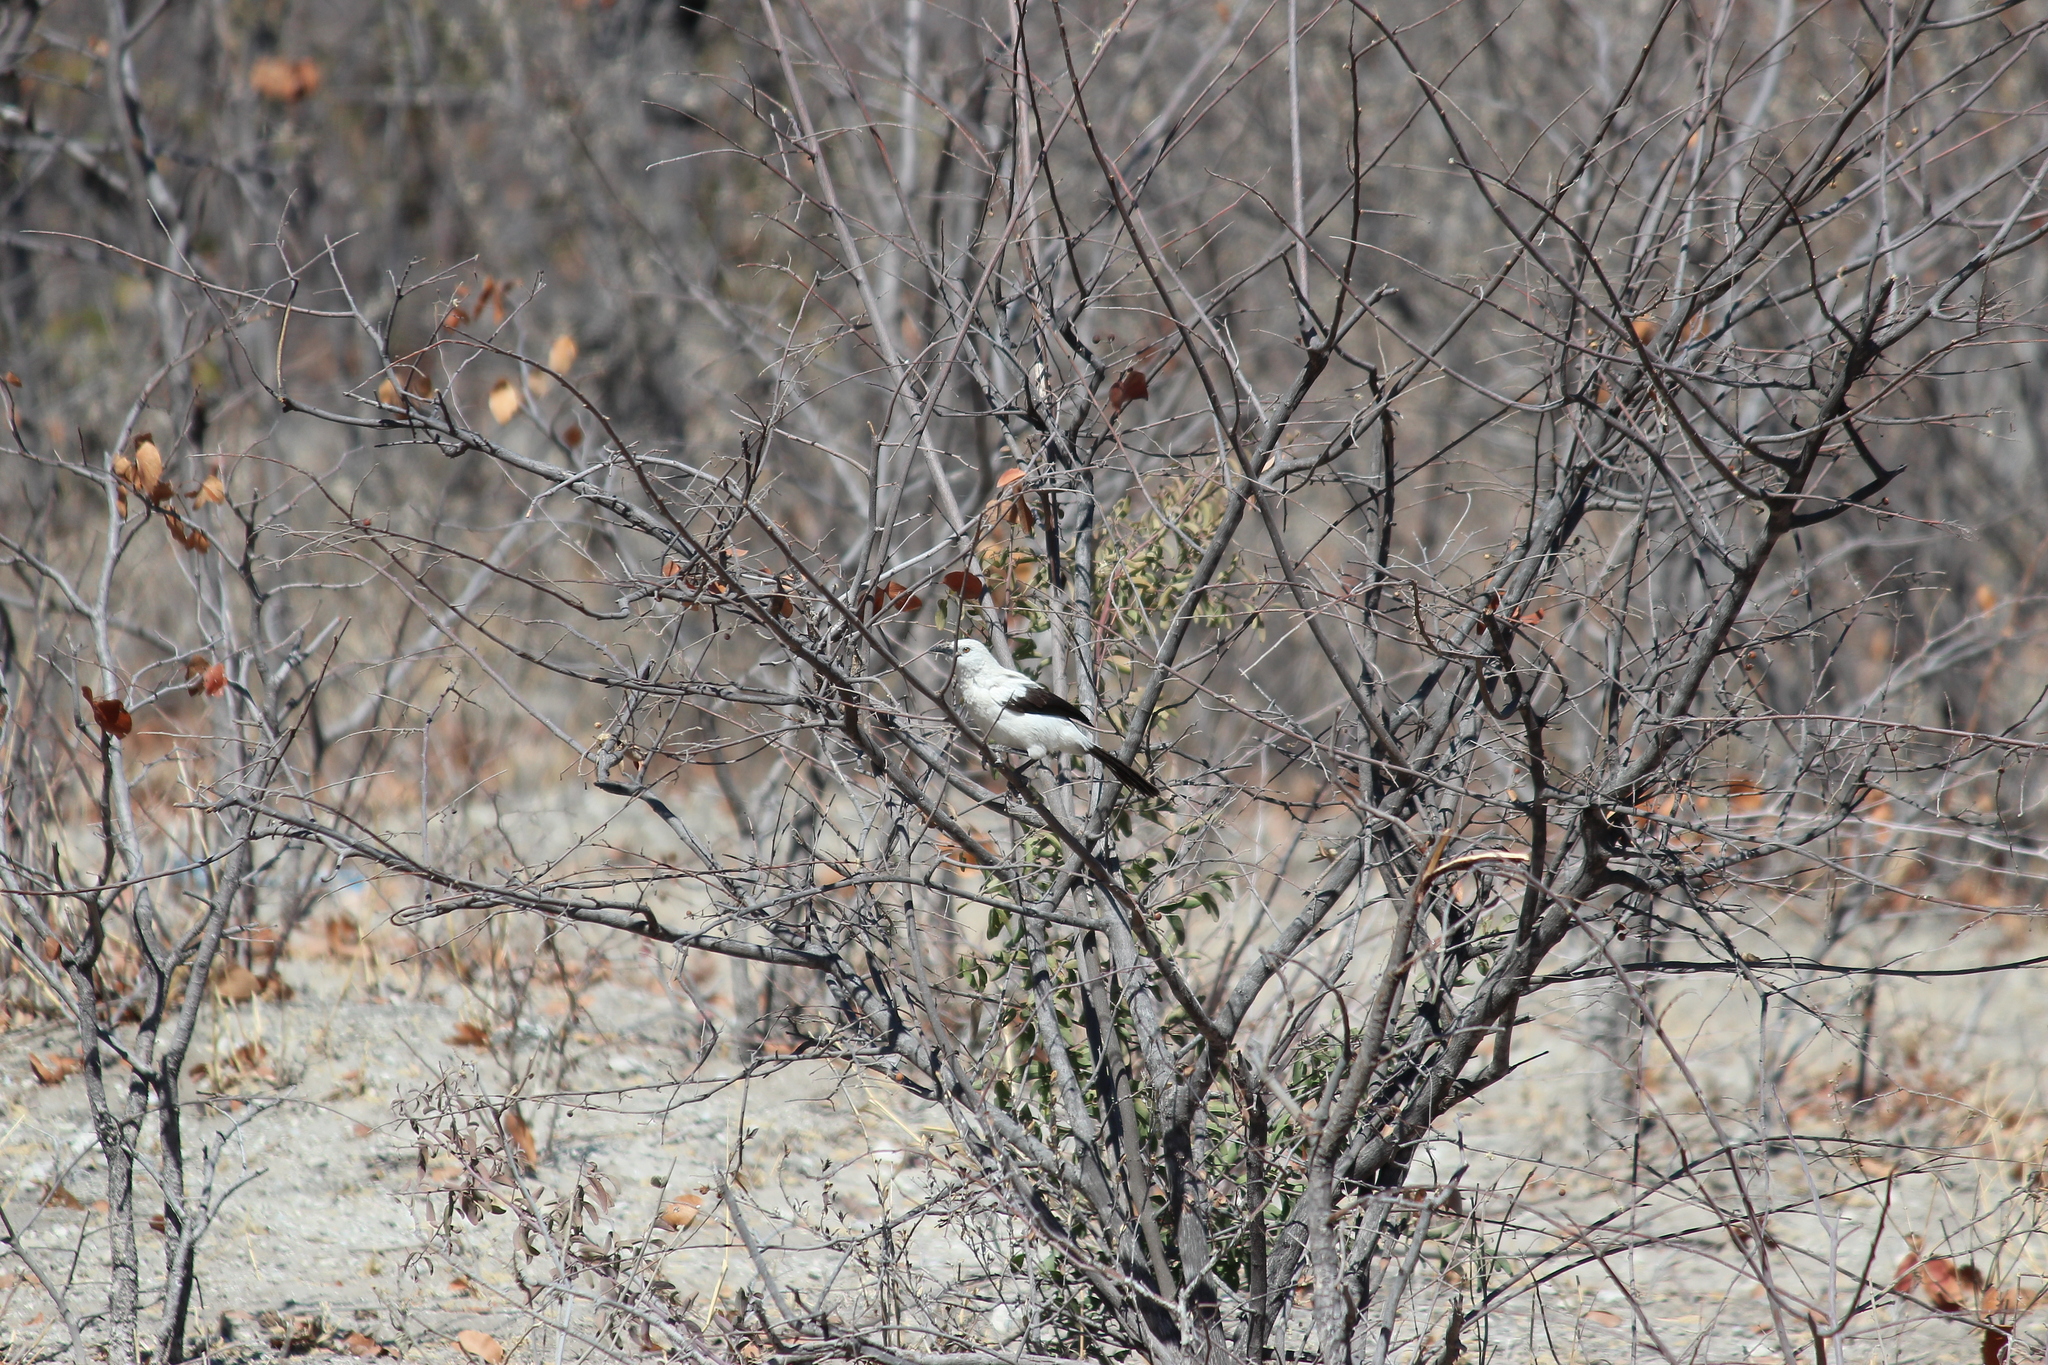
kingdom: Animalia
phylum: Chordata
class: Aves
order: Passeriformes
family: Leiothrichidae
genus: Turdoides
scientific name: Turdoides bicolor
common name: Southern pied babbler
